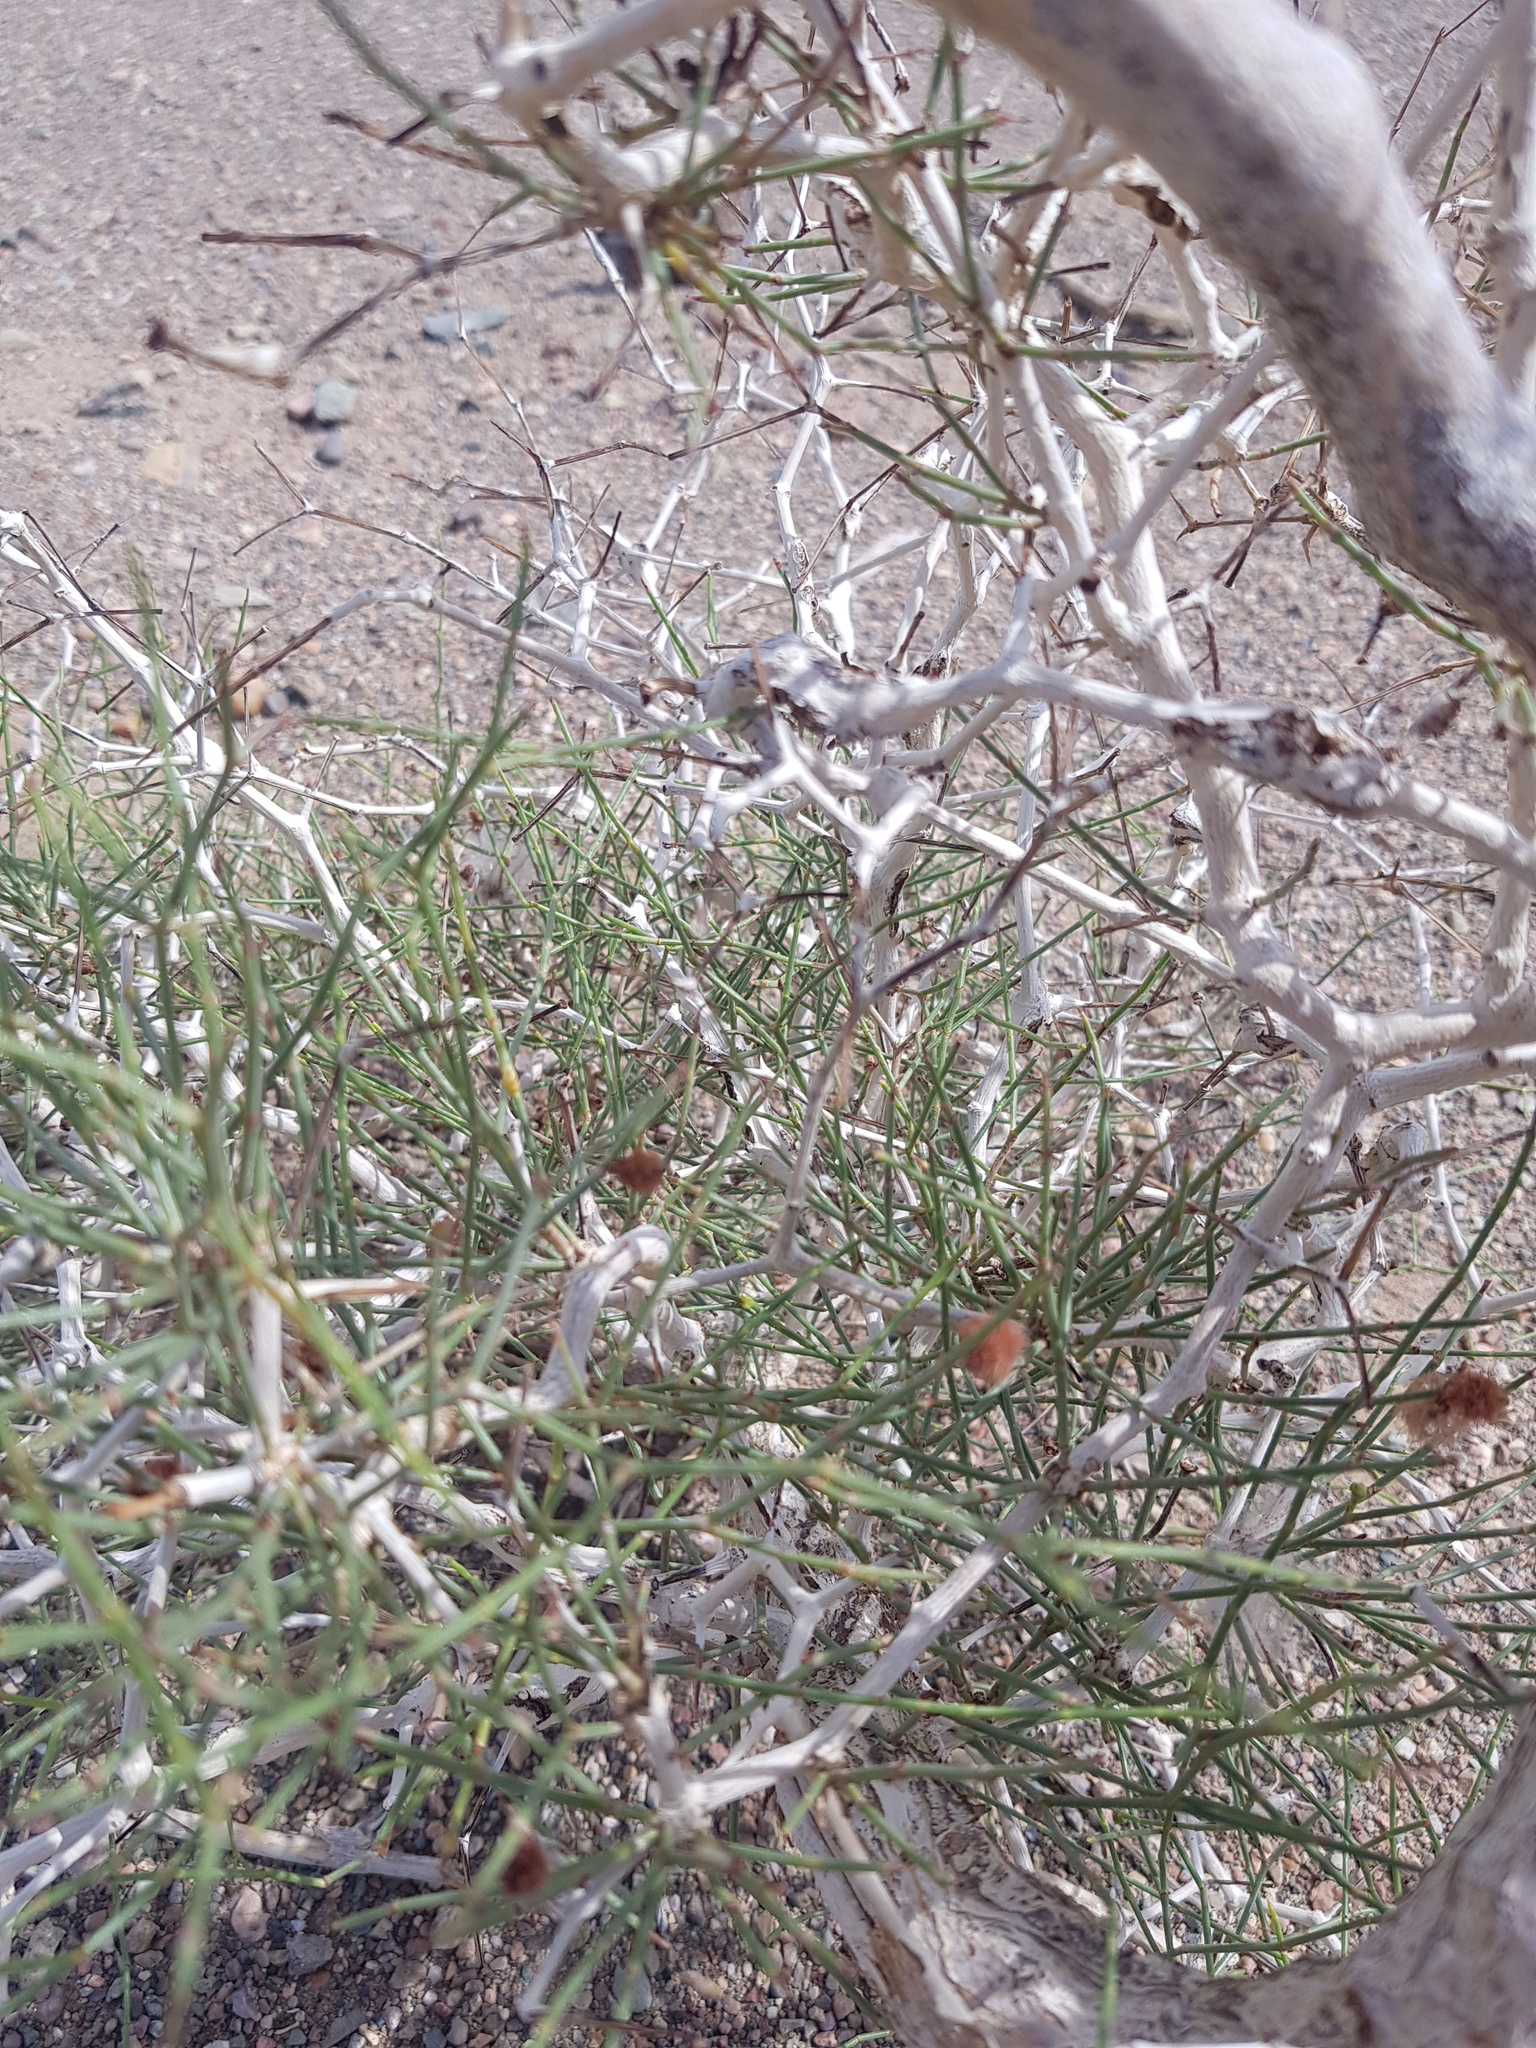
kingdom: Plantae
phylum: Tracheophyta
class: Magnoliopsida
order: Caryophyllales
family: Polygonaceae
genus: Calligonum
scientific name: Calligonum ebinuricum
